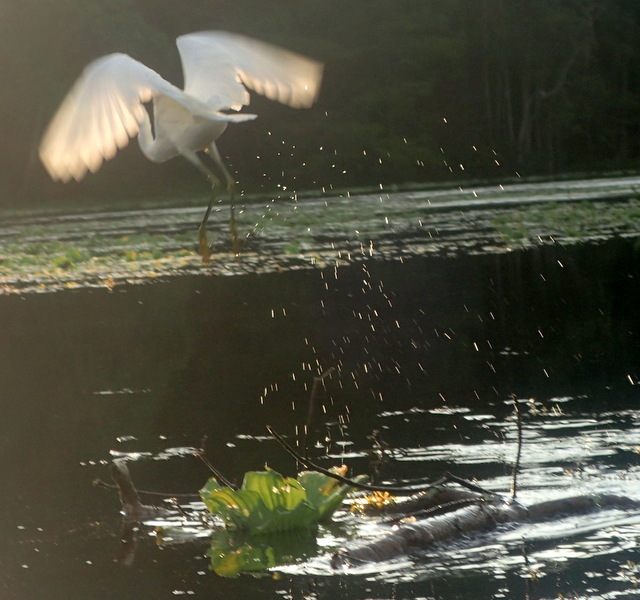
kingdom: Animalia
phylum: Chordata
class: Aves
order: Pelecaniformes
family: Ardeidae
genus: Egretta
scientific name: Egretta thula
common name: Snowy egret
